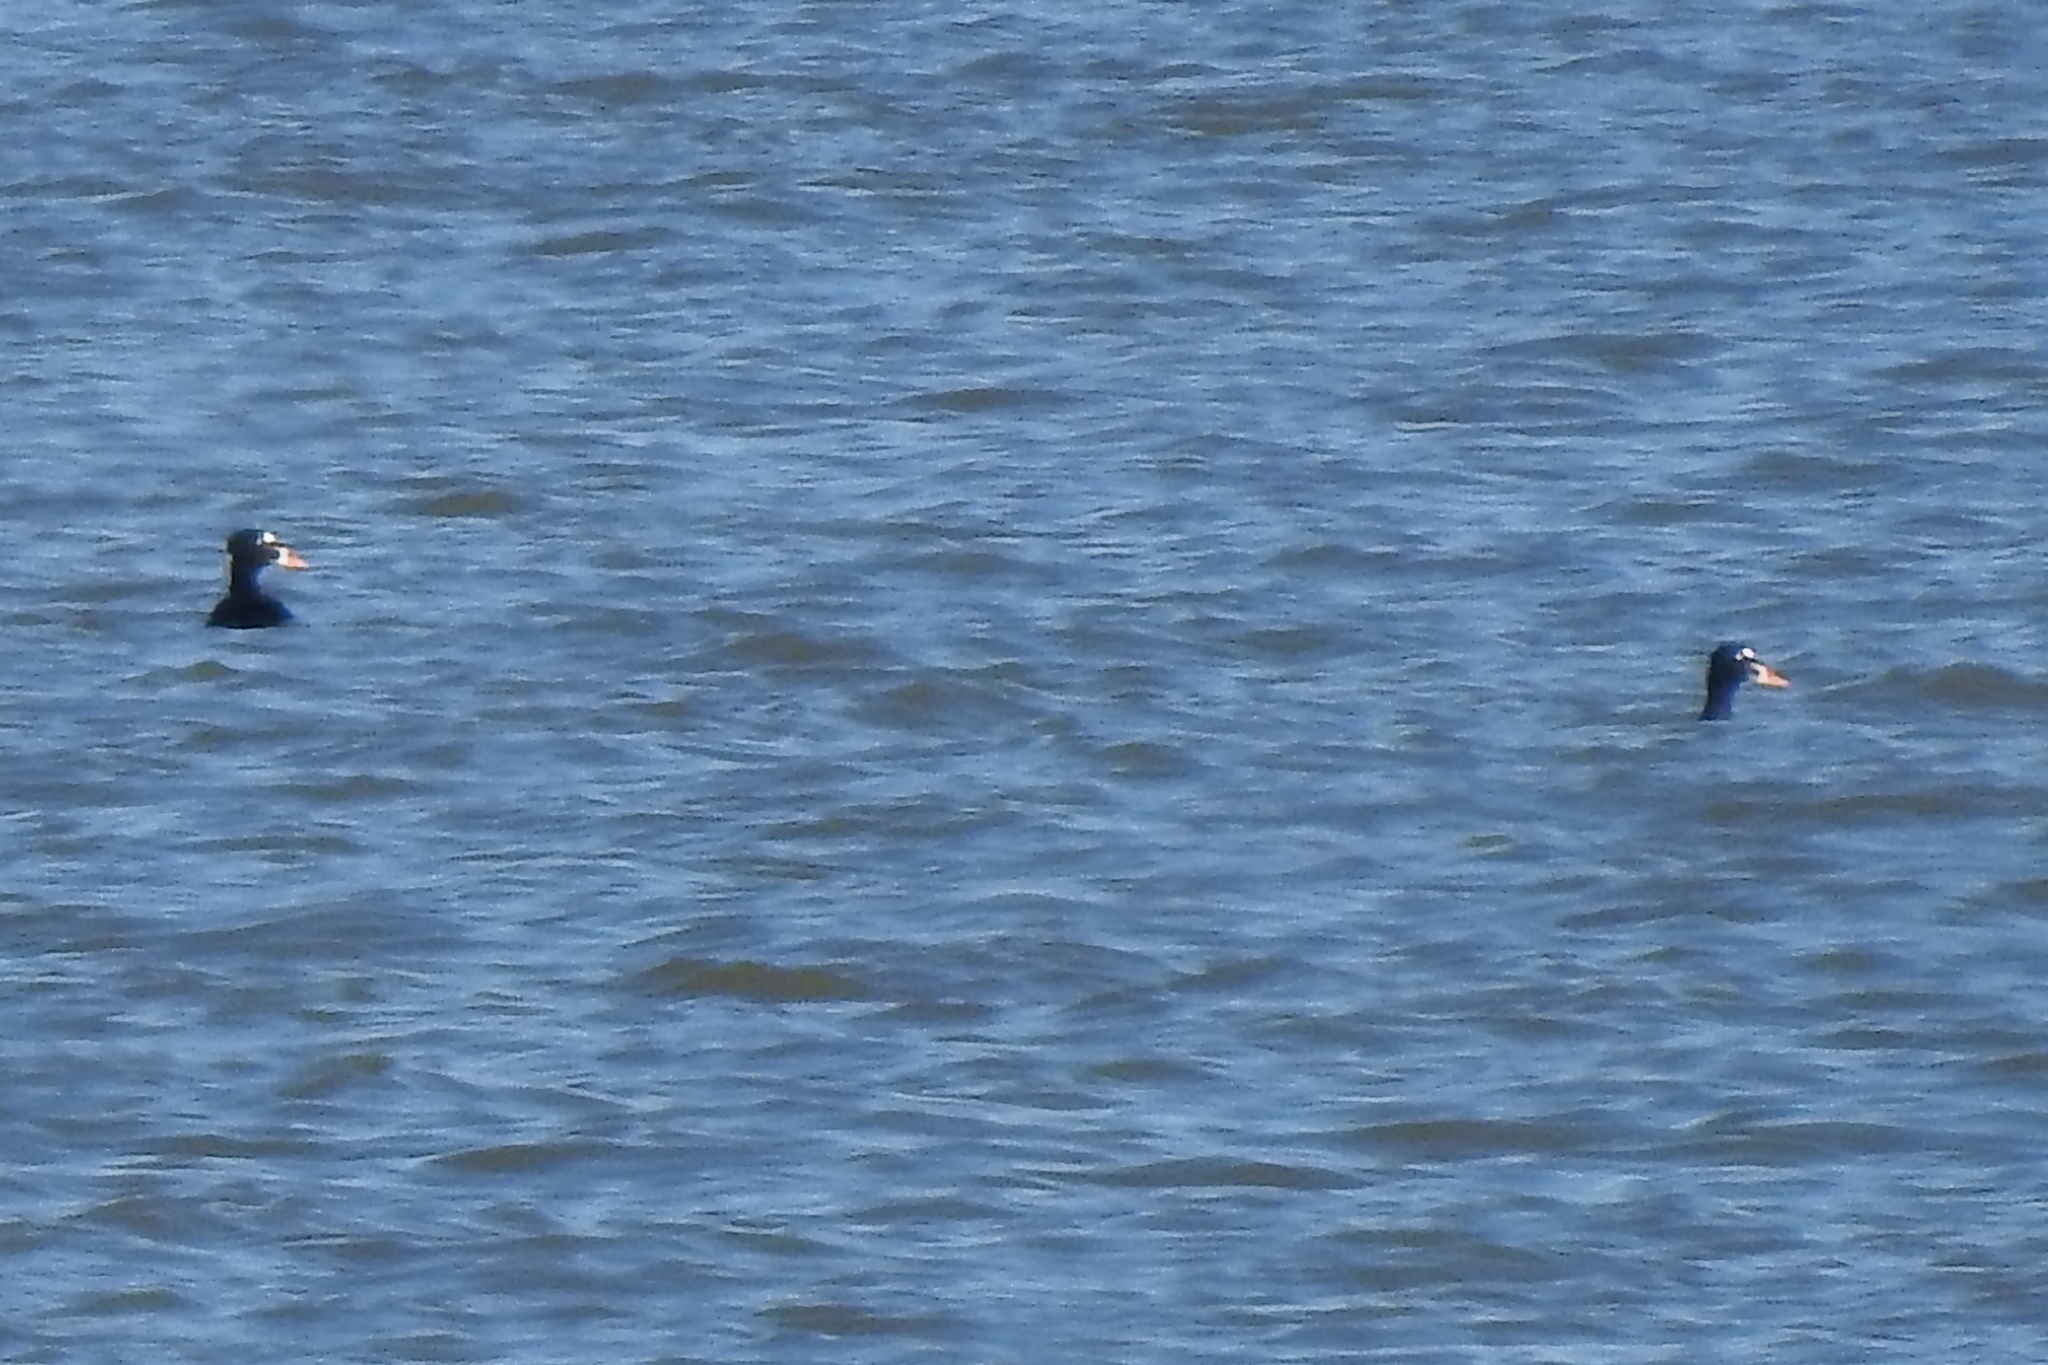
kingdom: Animalia
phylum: Chordata
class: Aves
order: Anseriformes
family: Anatidae
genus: Melanitta
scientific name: Melanitta perspicillata
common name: Surf scoter
